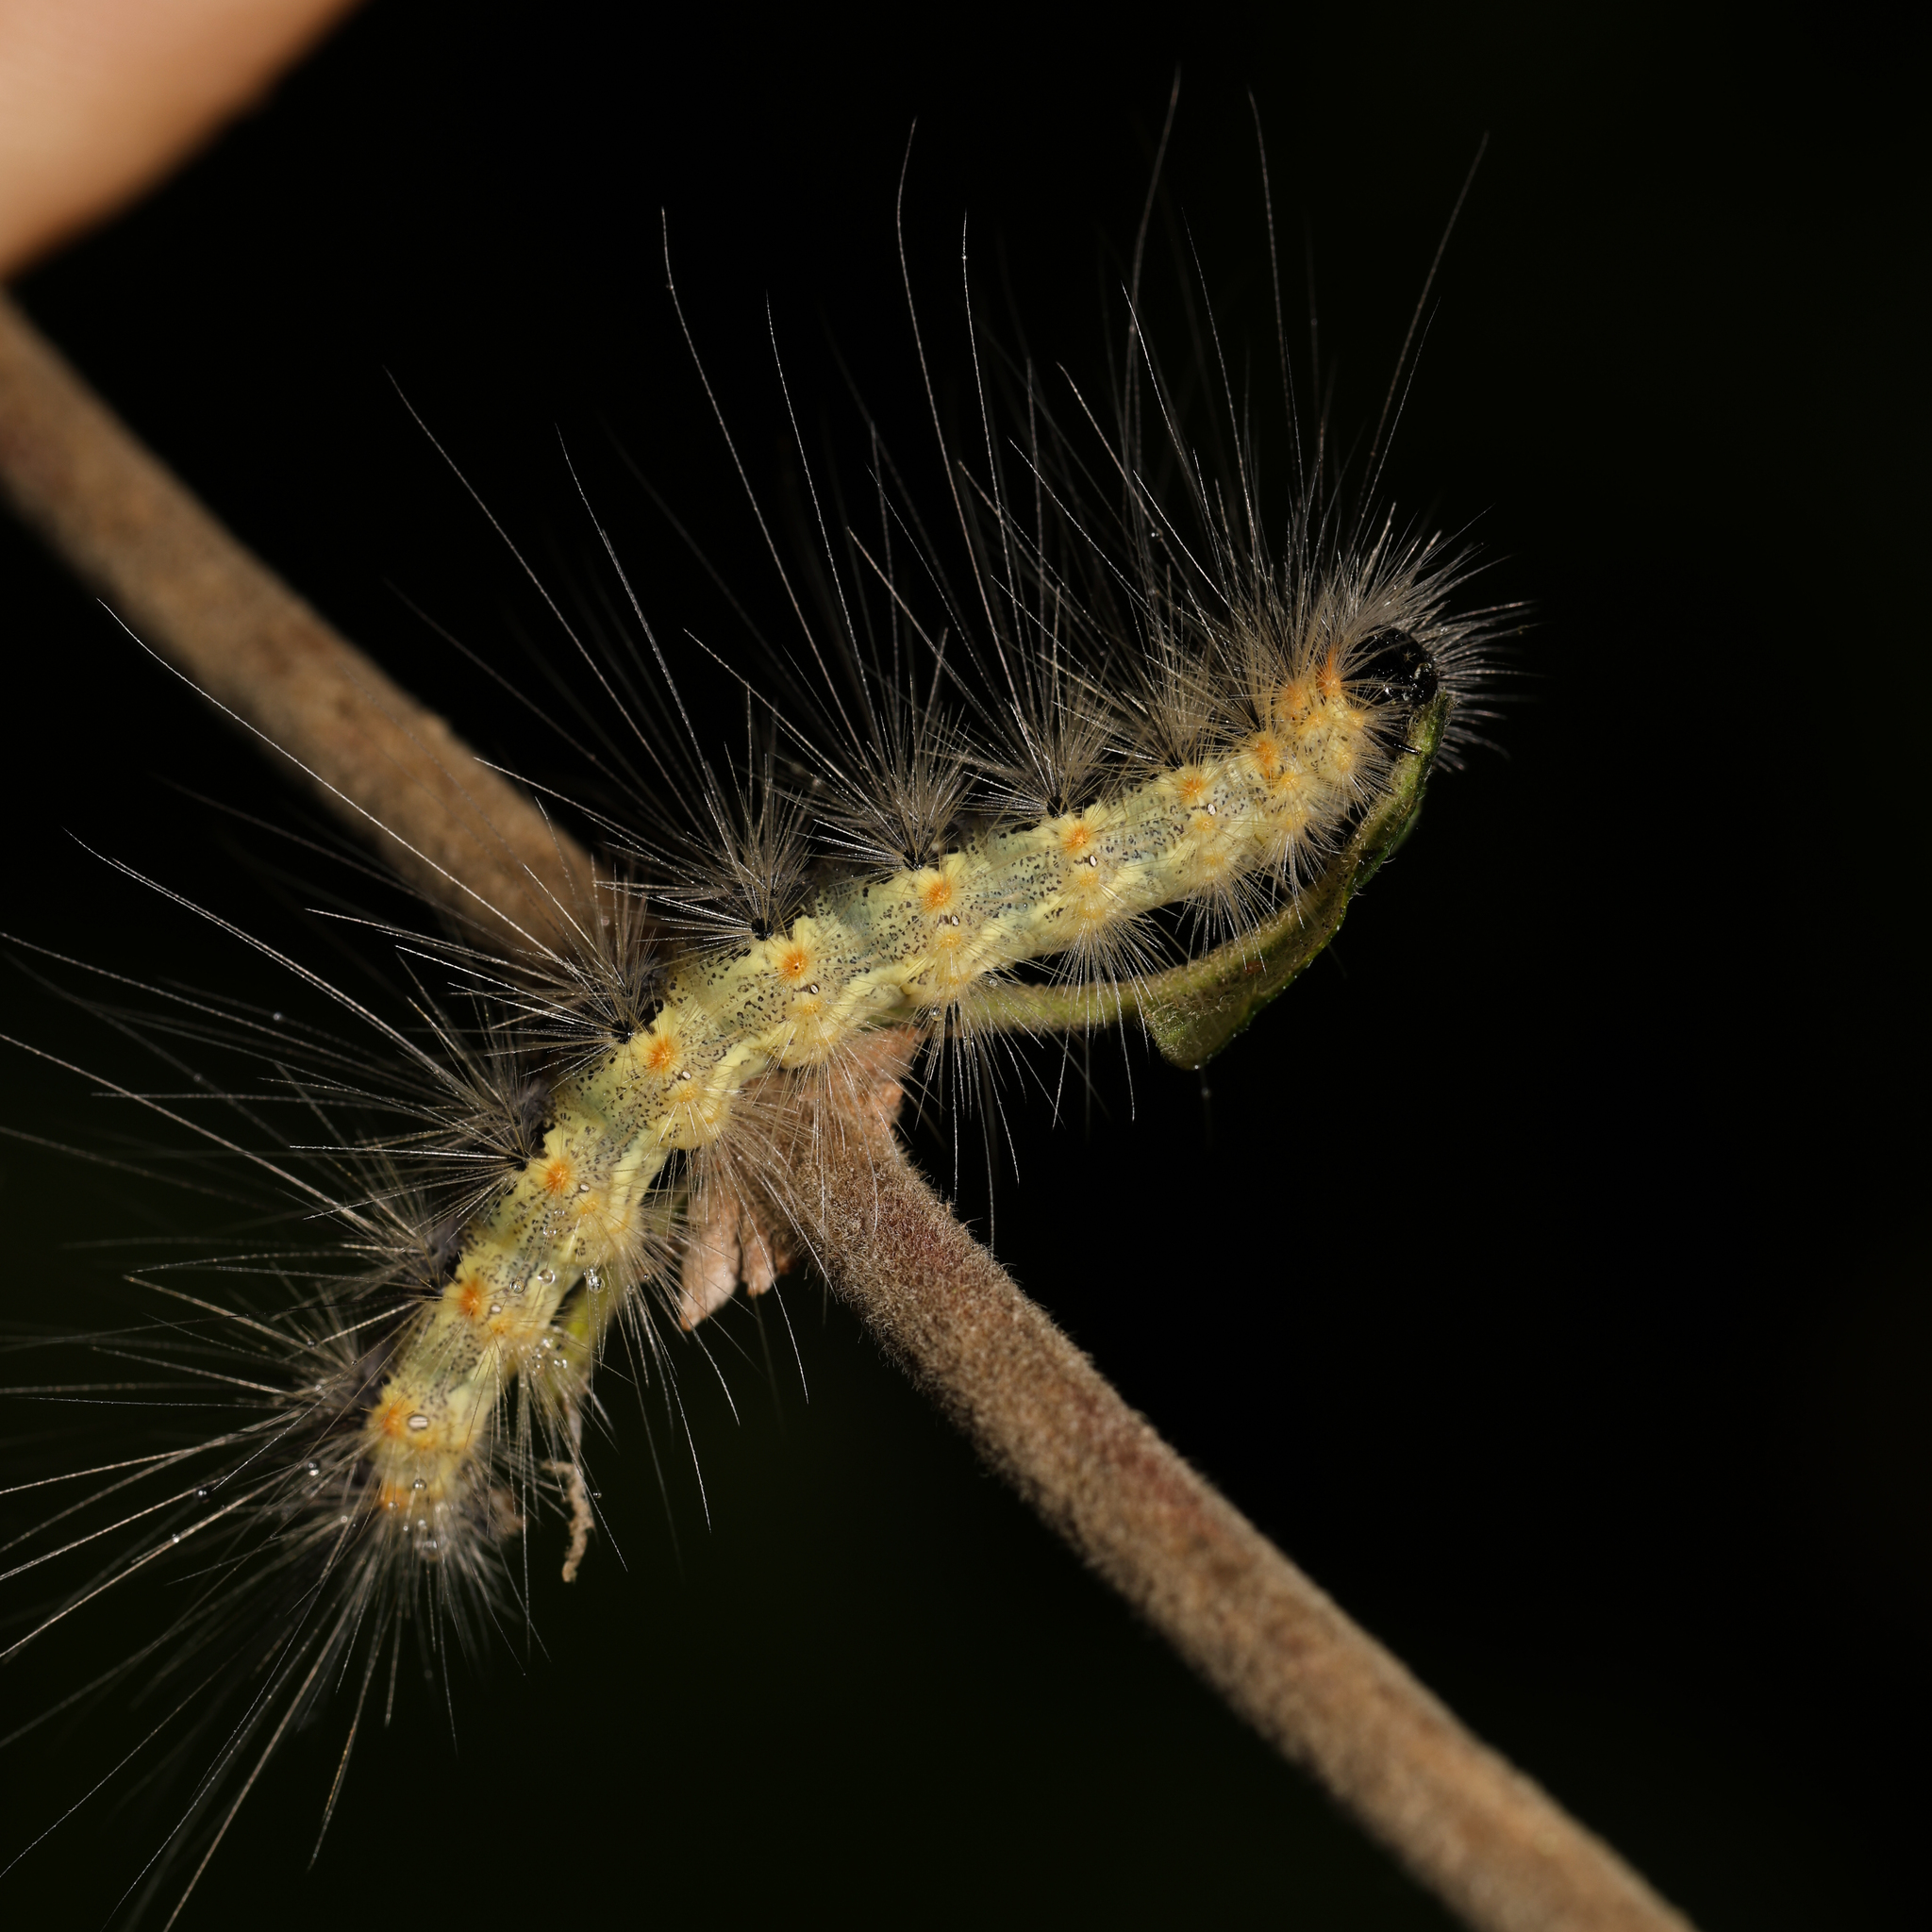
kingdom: Animalia
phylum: Arthropoda
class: Insecta
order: Lepidoptera
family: Erebidae
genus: Hyphantria
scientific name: Hyphantria cunea
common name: American white moth
